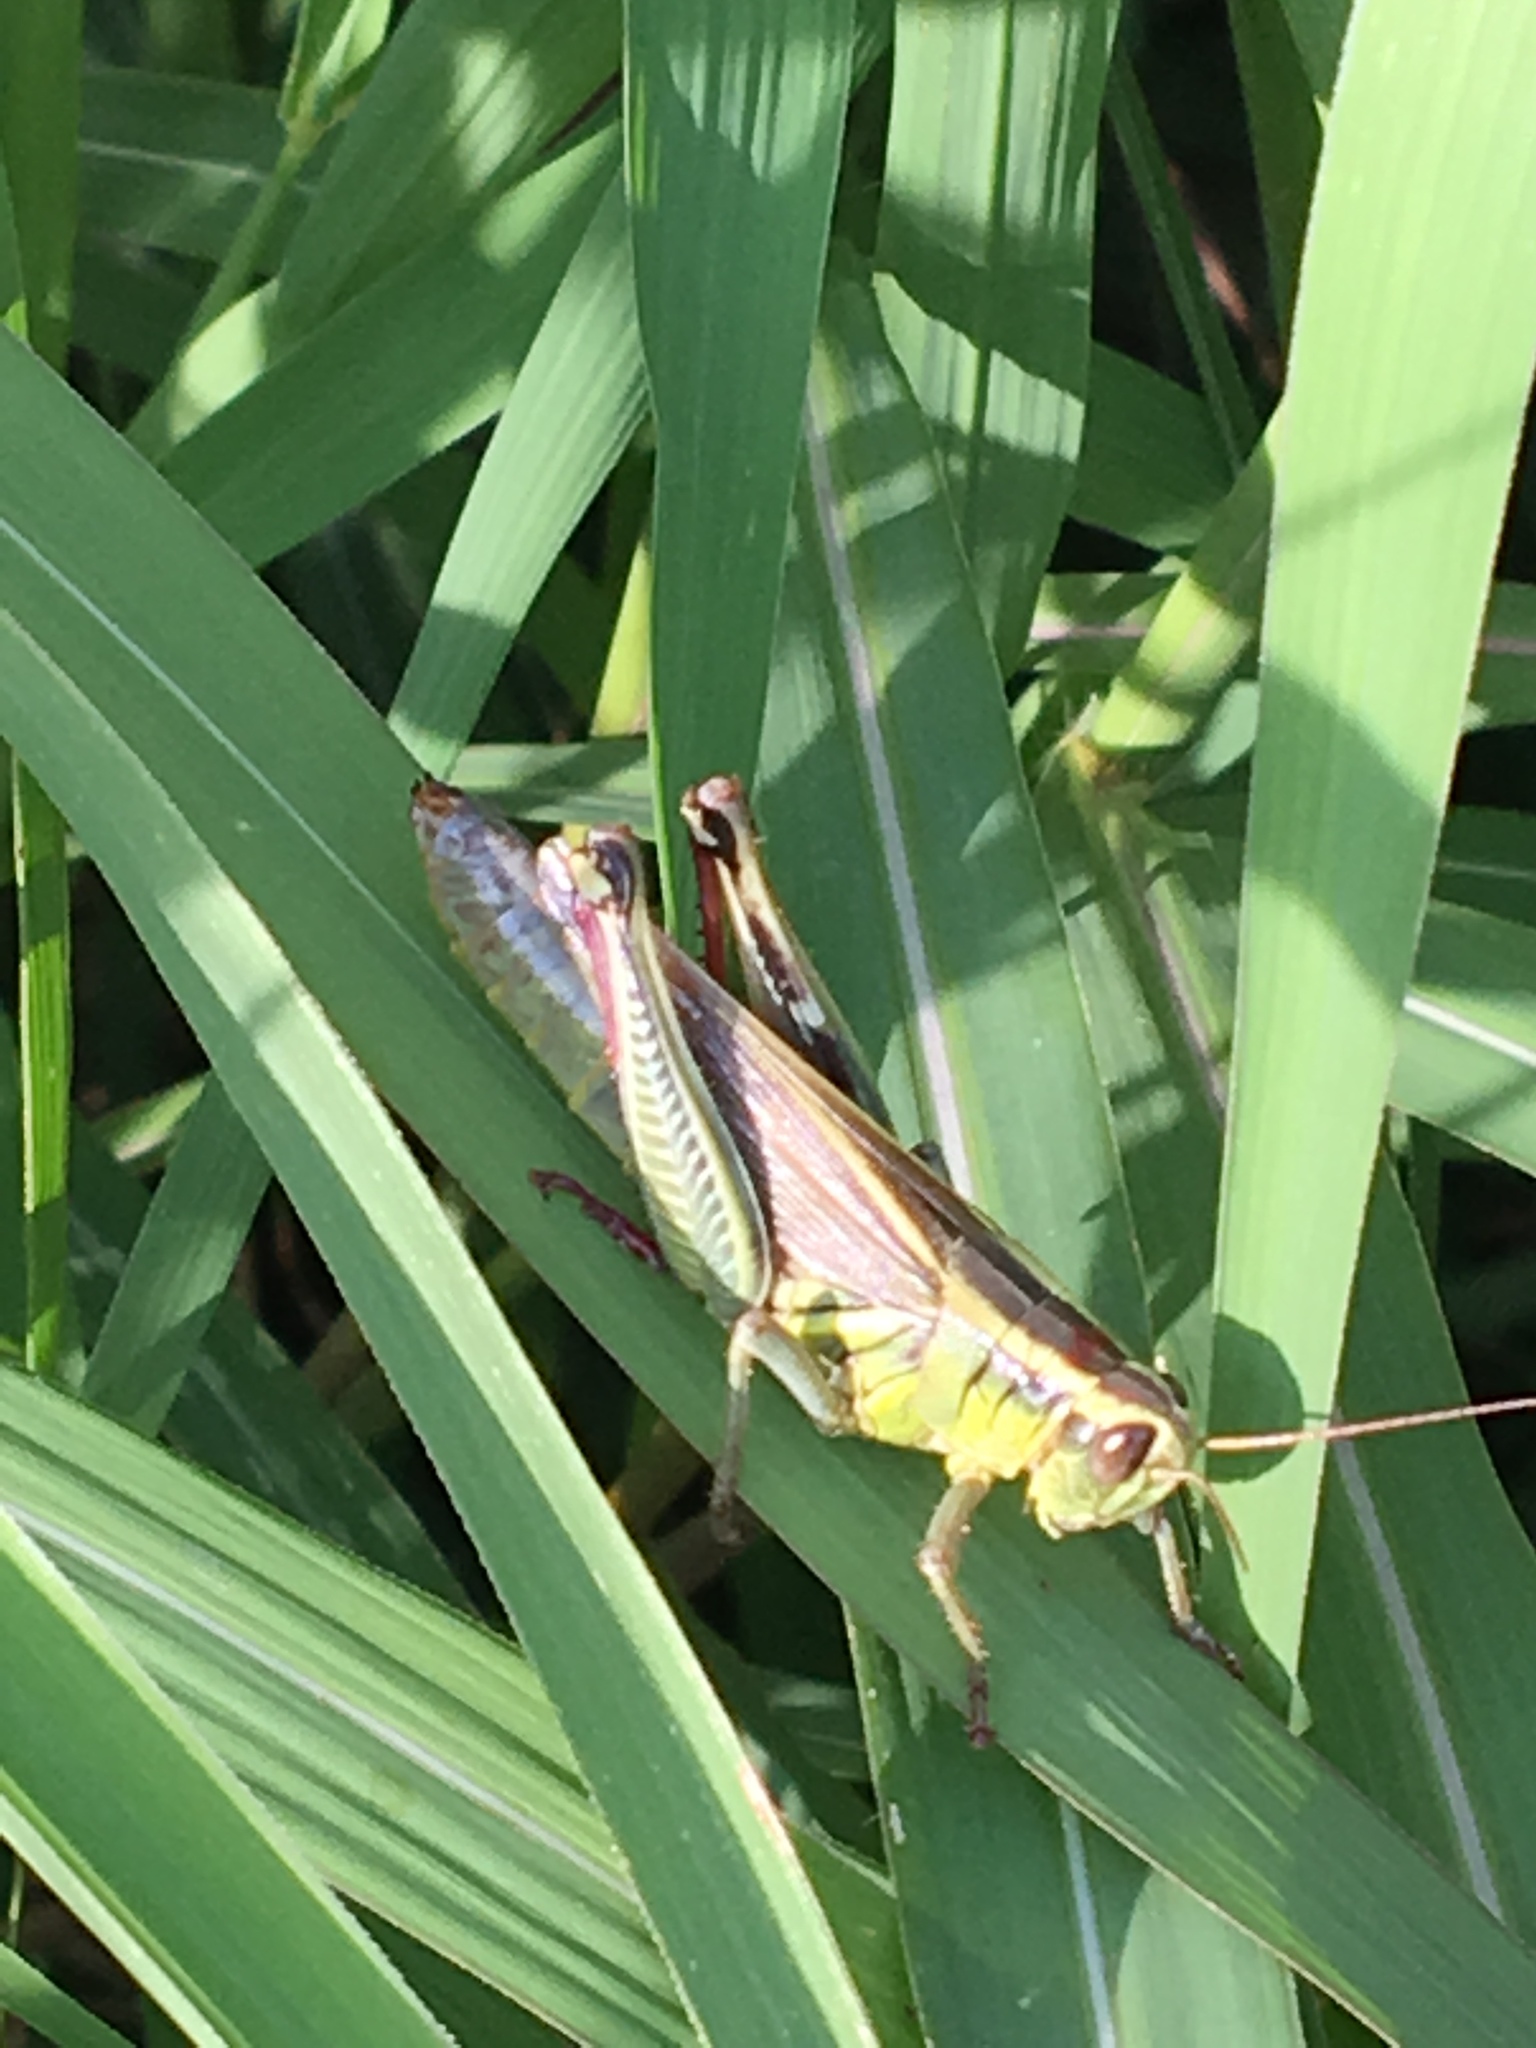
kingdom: Animalia
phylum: Arthropoda
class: Insecta
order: Orthoptera
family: Acrididae
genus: Melanoplus
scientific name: Melanoplus bivittatus
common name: Two-striped grasshopper
